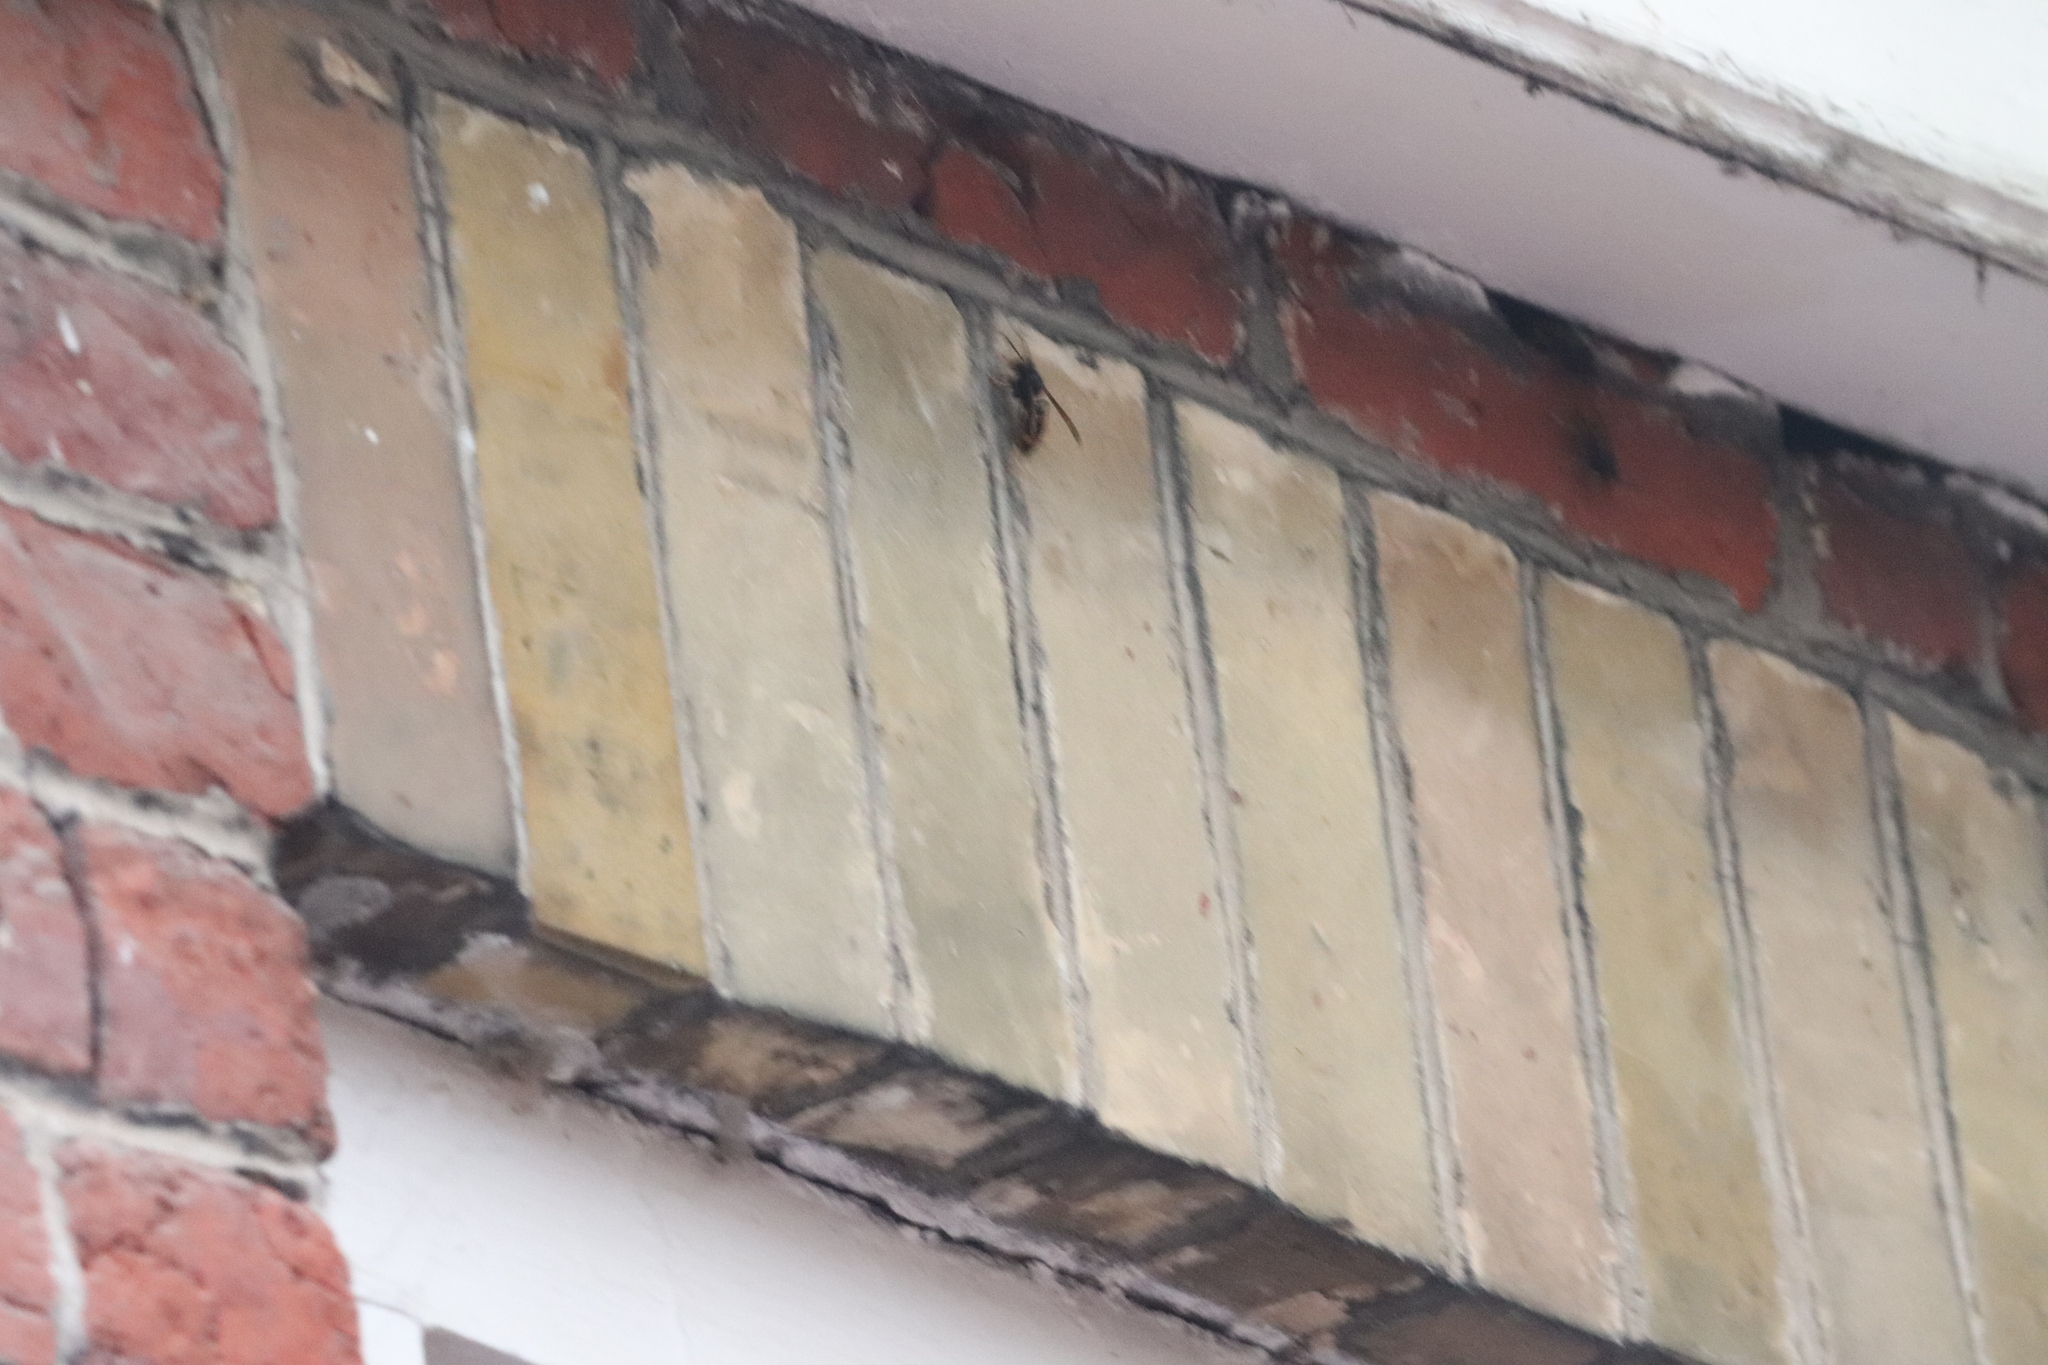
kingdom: Animalia
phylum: Arthropoda
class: Insecta
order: Hymenoptera
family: Vespidae
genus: Vespa
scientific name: Vespa velutina
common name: Asian hornet
